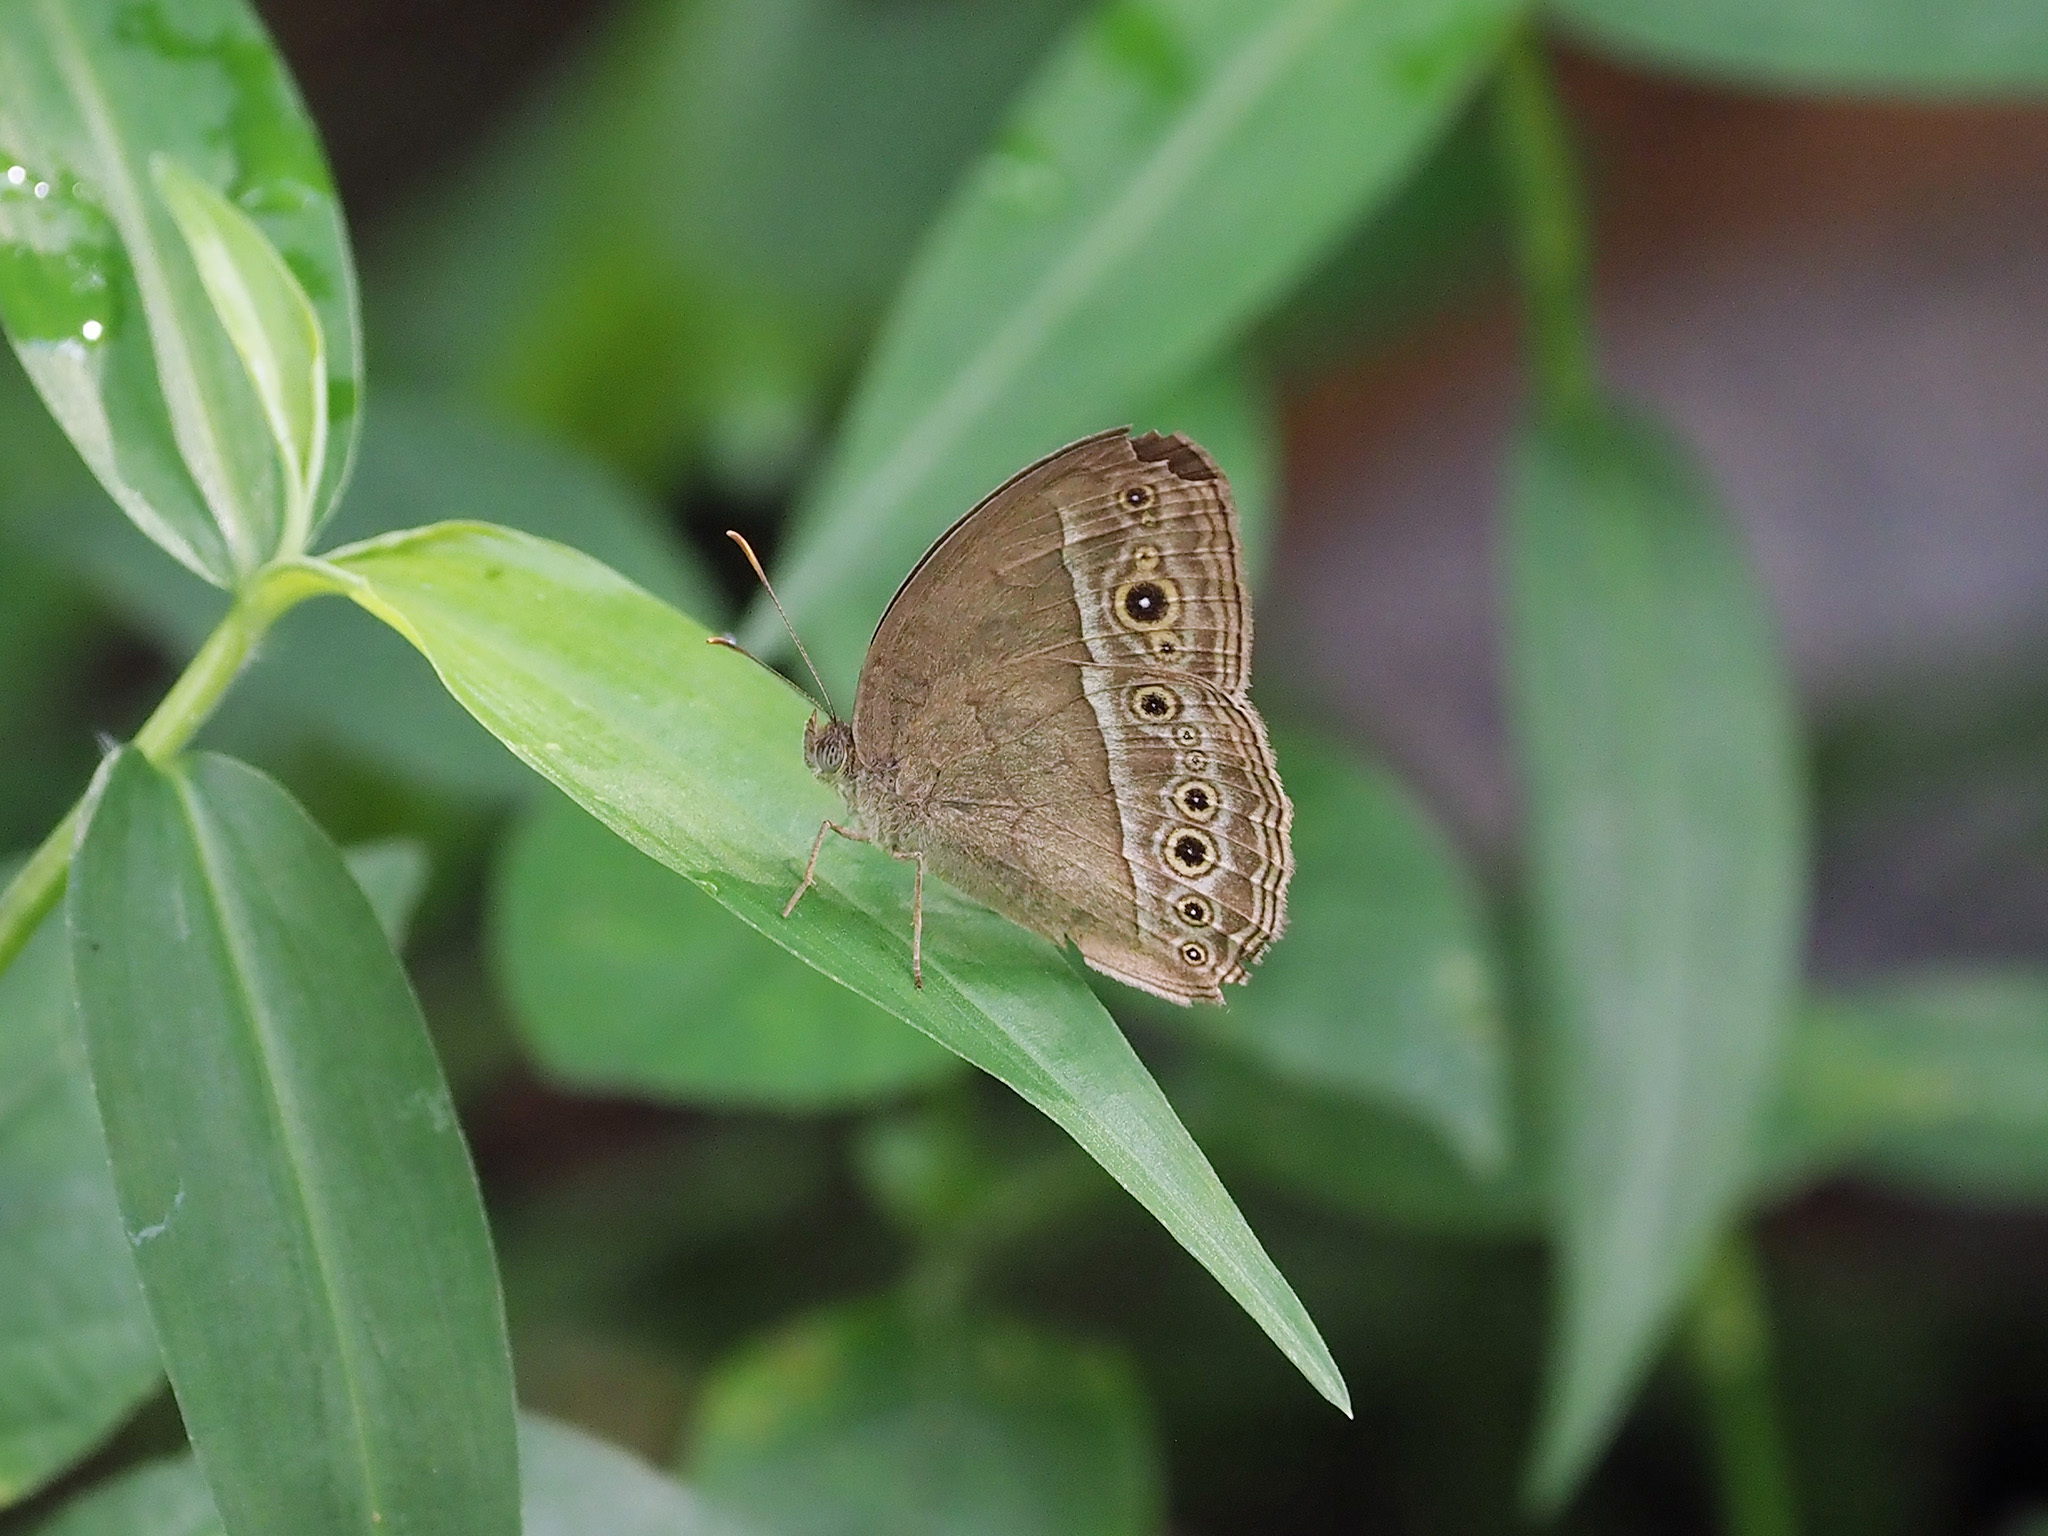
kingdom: Animalia
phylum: Arthropoda
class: Insecta
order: Lepidoptera
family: Nymphalidae
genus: Mycalesis
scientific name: Mycalesis perseoides
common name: Burmese bushbrown
